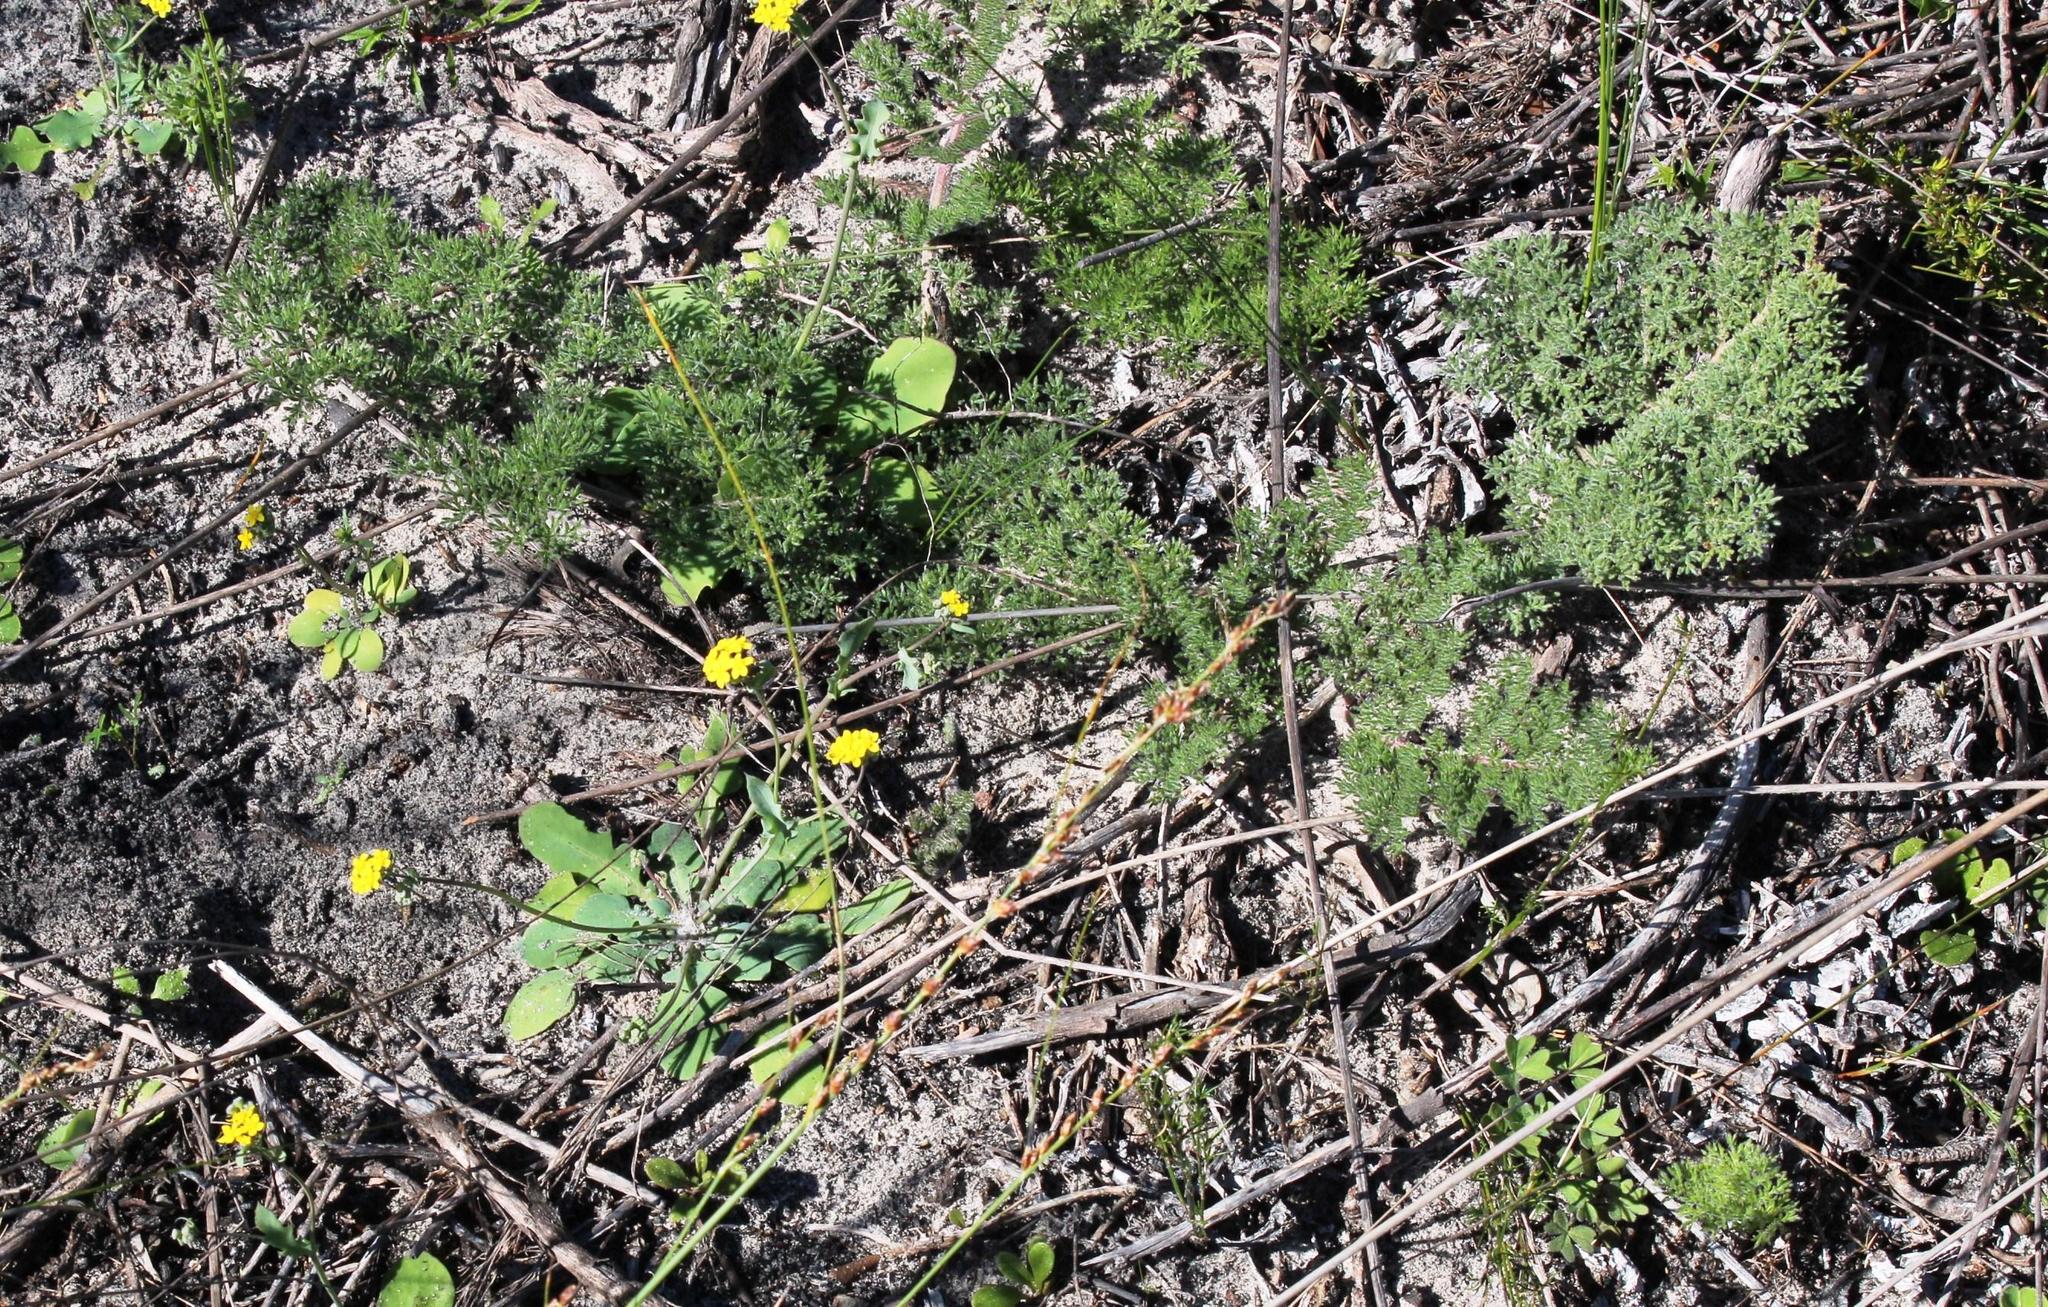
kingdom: Plantae
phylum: Tracheophyta
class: Magnoliopsida
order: Geraniales
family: Geraniaceae
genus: Pelargonium
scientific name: Pelargonium triste
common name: Night-scent pelargonium
